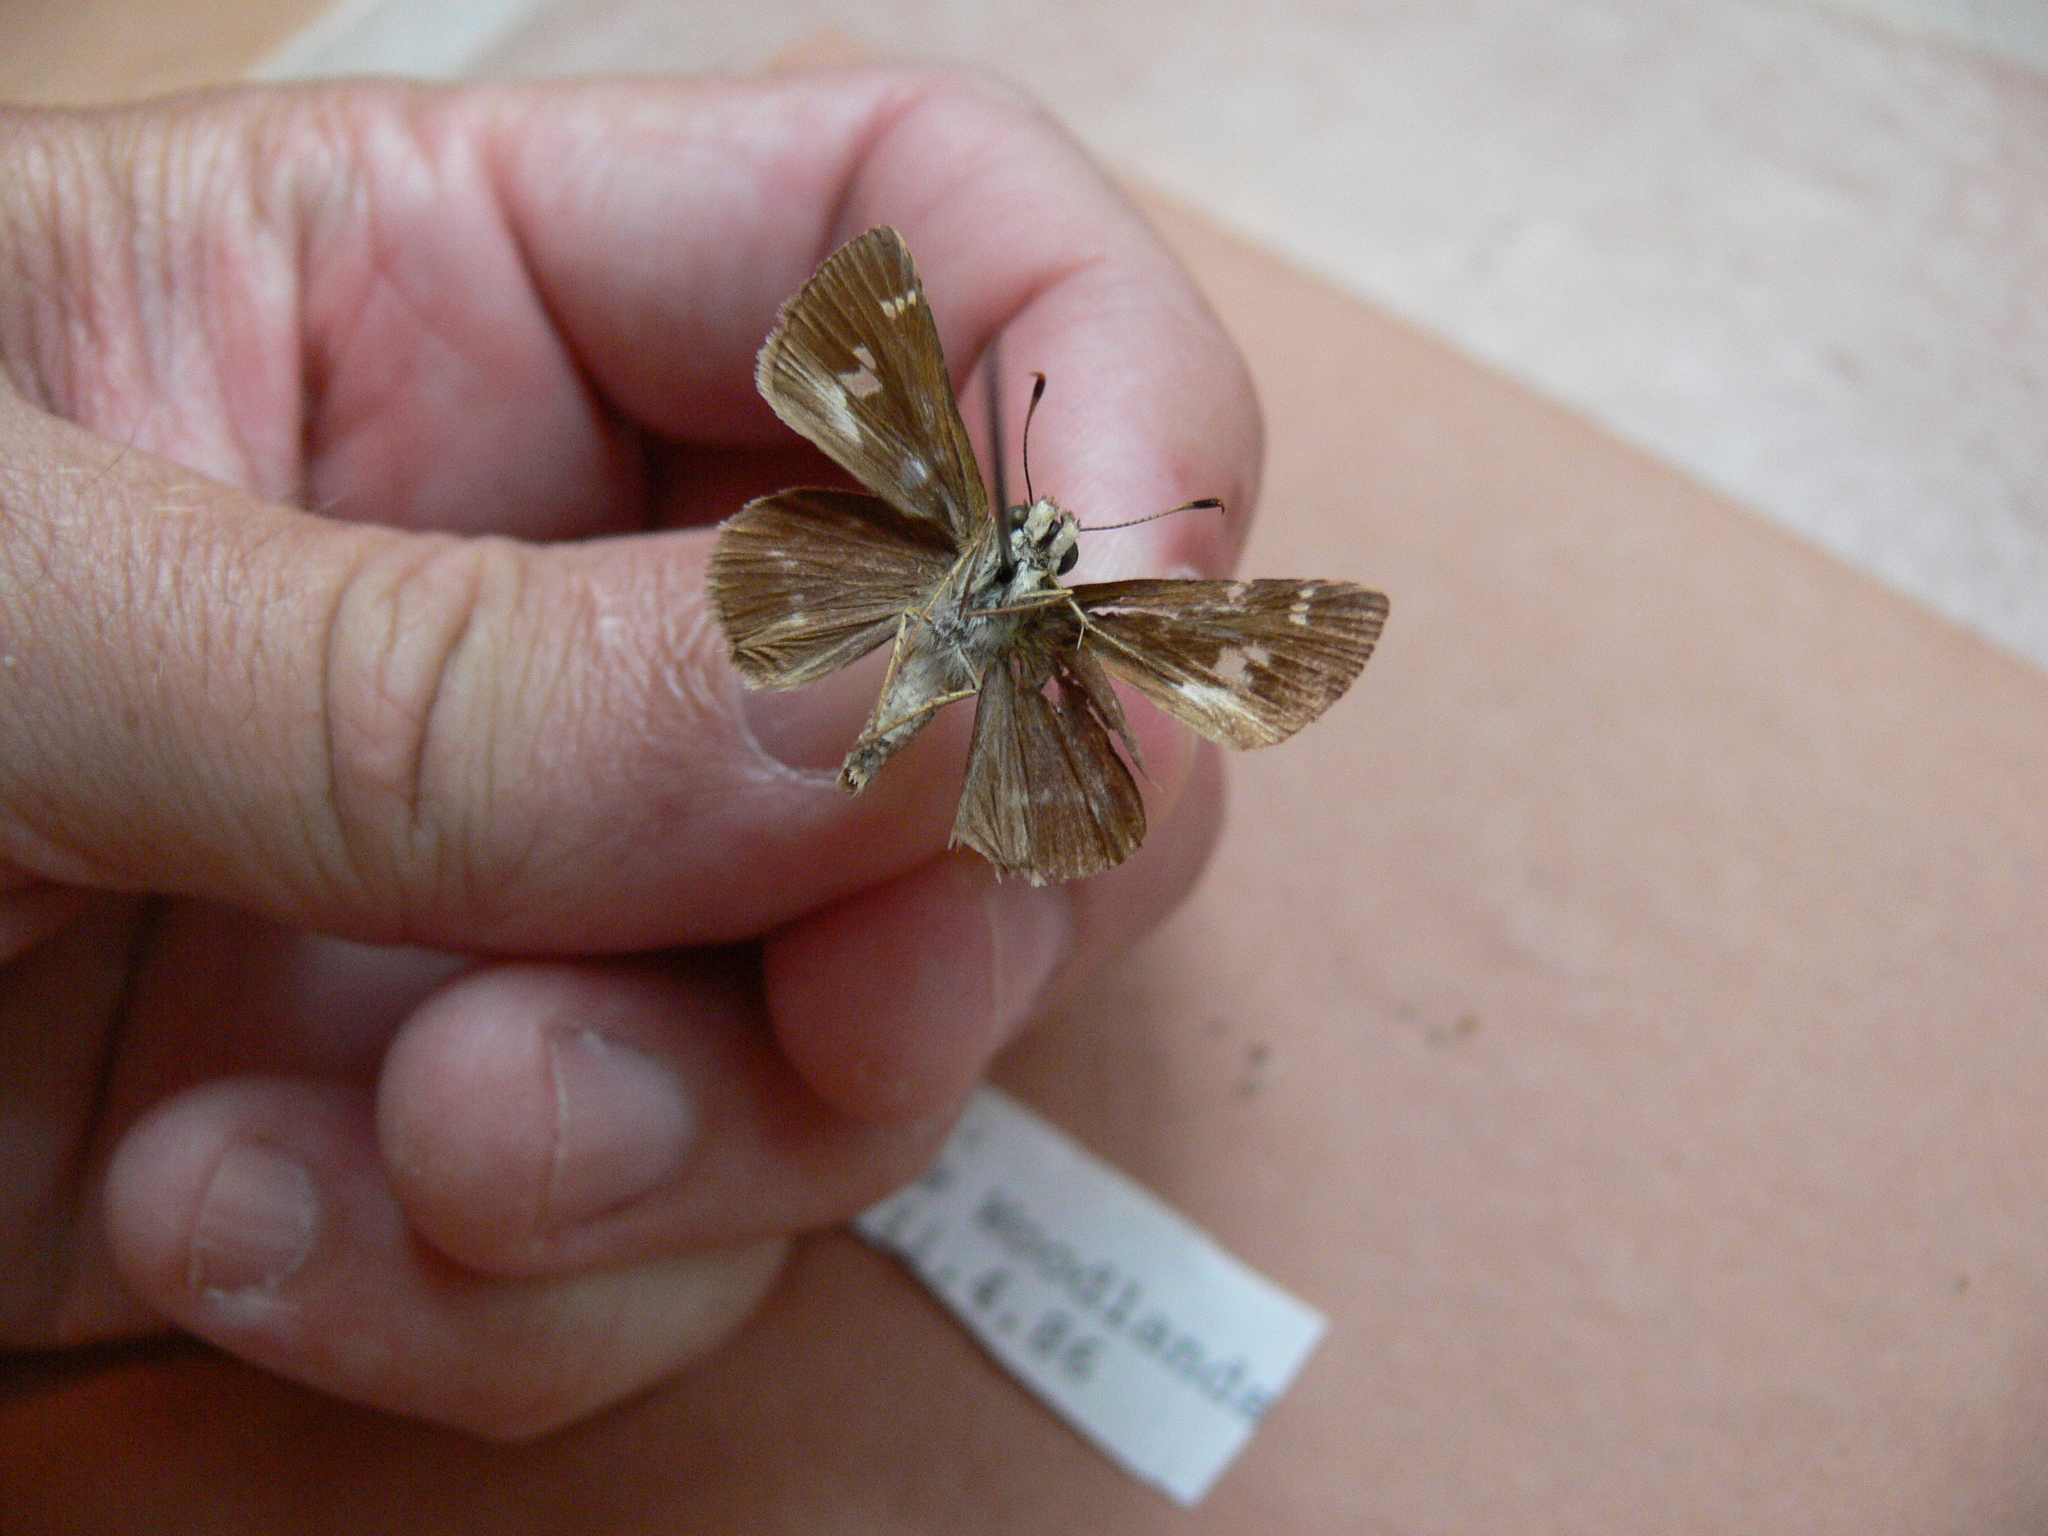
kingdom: Animalia
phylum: Arthropoda
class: Insecta
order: Lepidoptera
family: Hesperiidae
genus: Vernia
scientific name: Vernia verna
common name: Little glassywing
